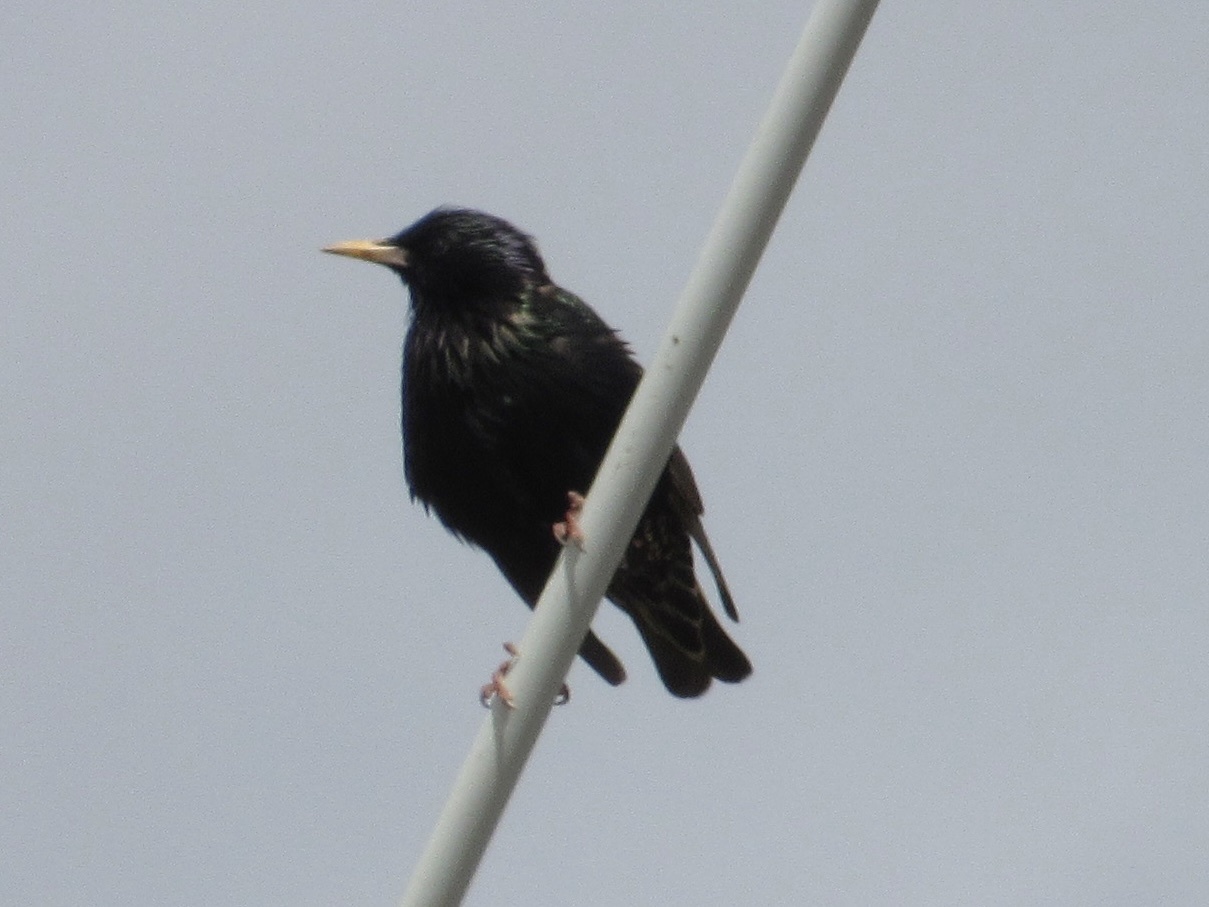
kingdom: Animalia
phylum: Chordata
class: Aves
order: Passeriformes
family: Sturnidae
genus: Sturnus
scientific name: Sturnus vulgaris
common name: Common starling
